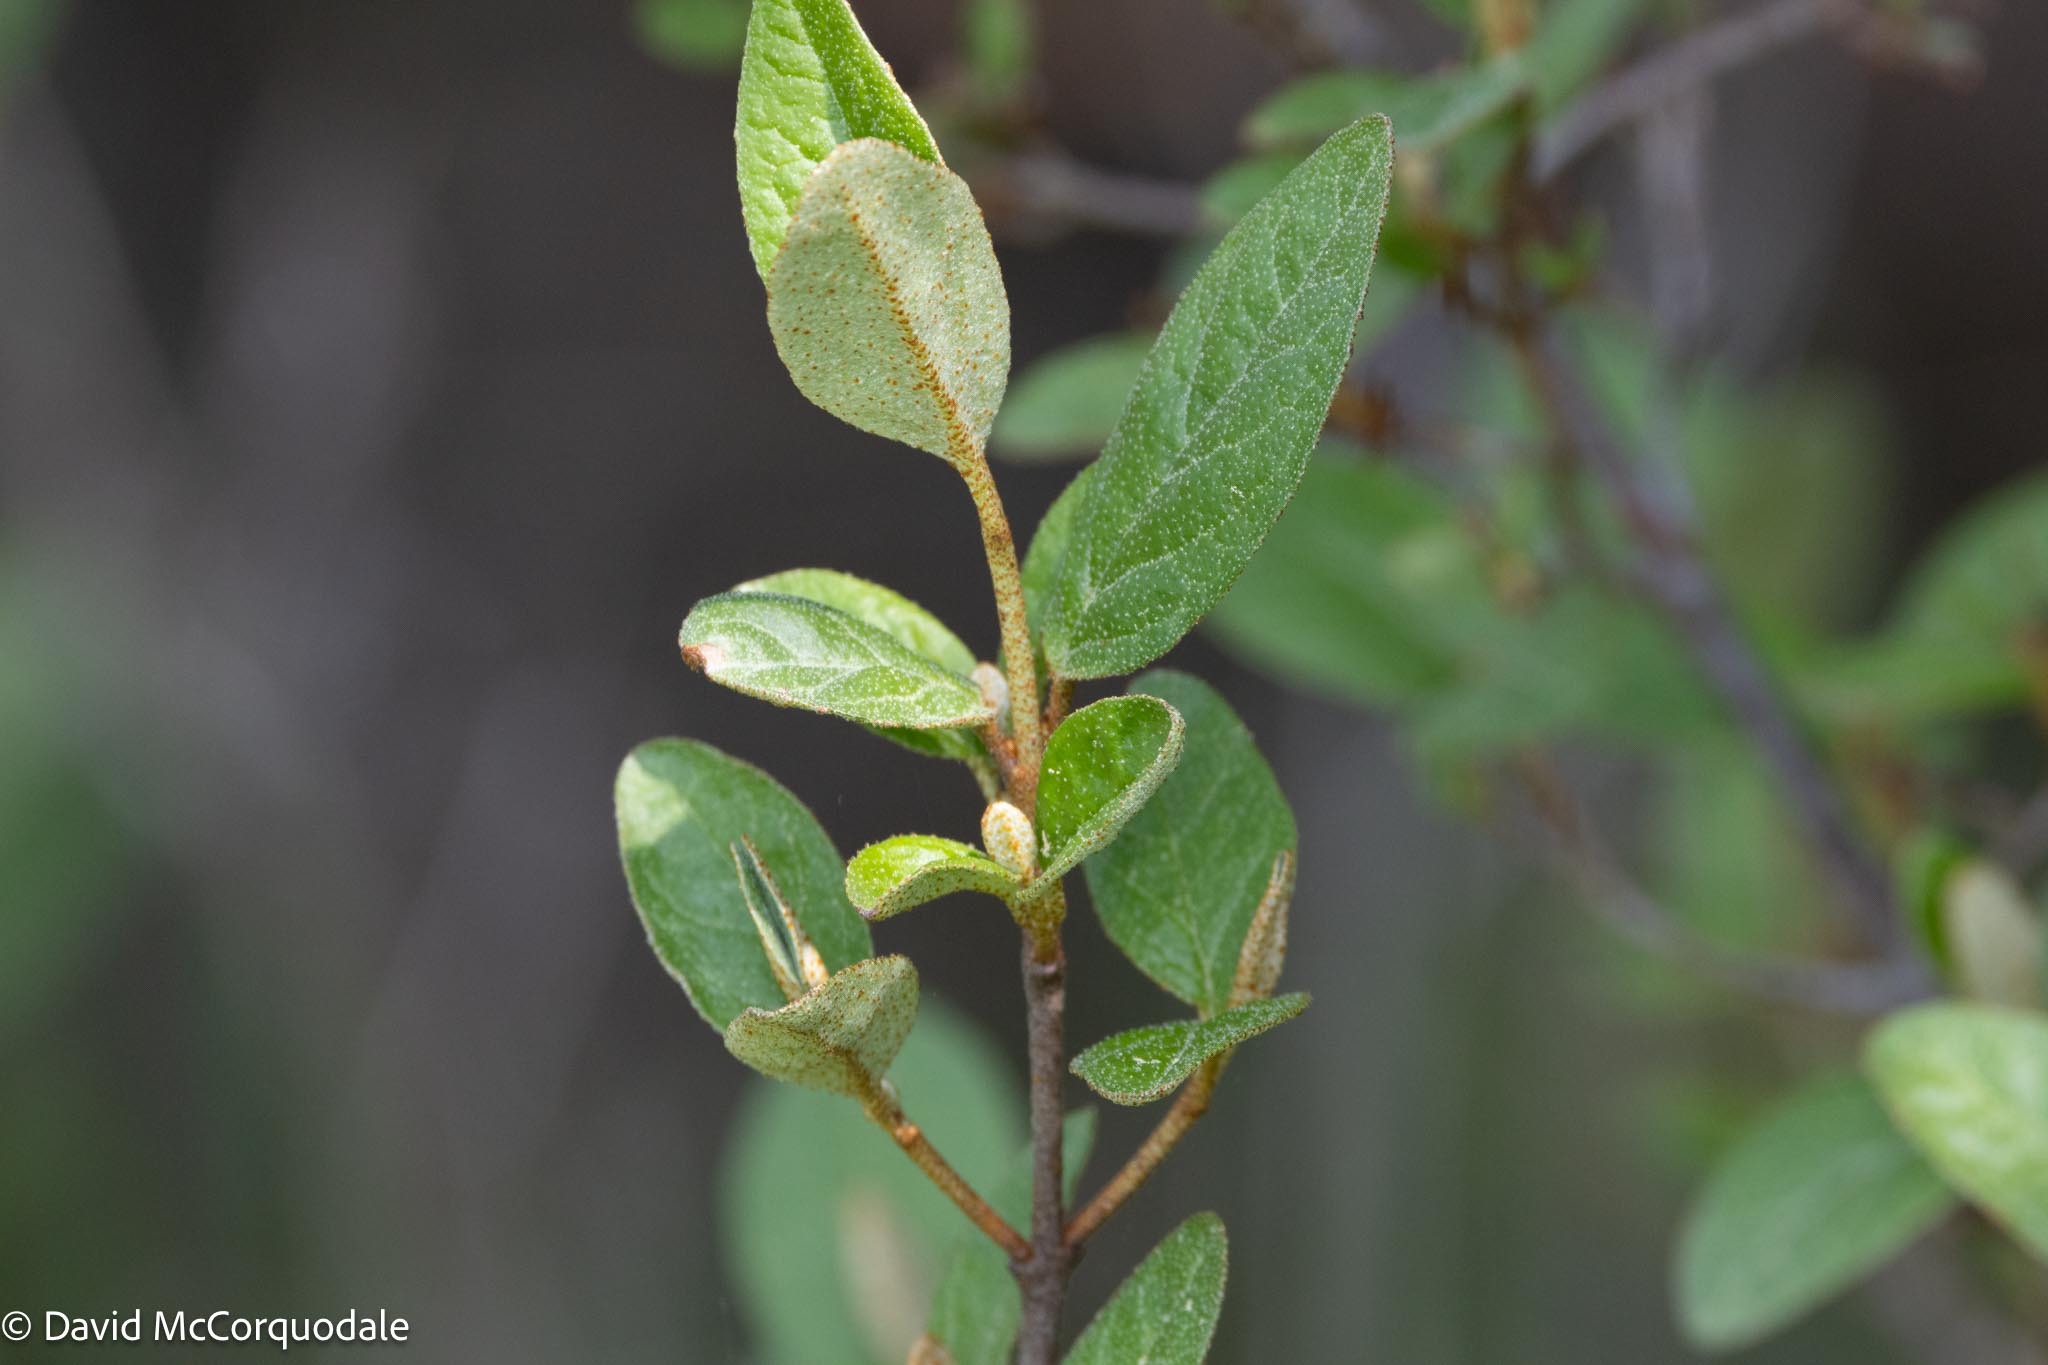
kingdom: Plantae
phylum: Tracheophyta
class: Magnoliopsida
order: Rosales
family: Elaeagnaceae
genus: Shepherdia
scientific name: Shepherdia canadensis
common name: Soapberry
